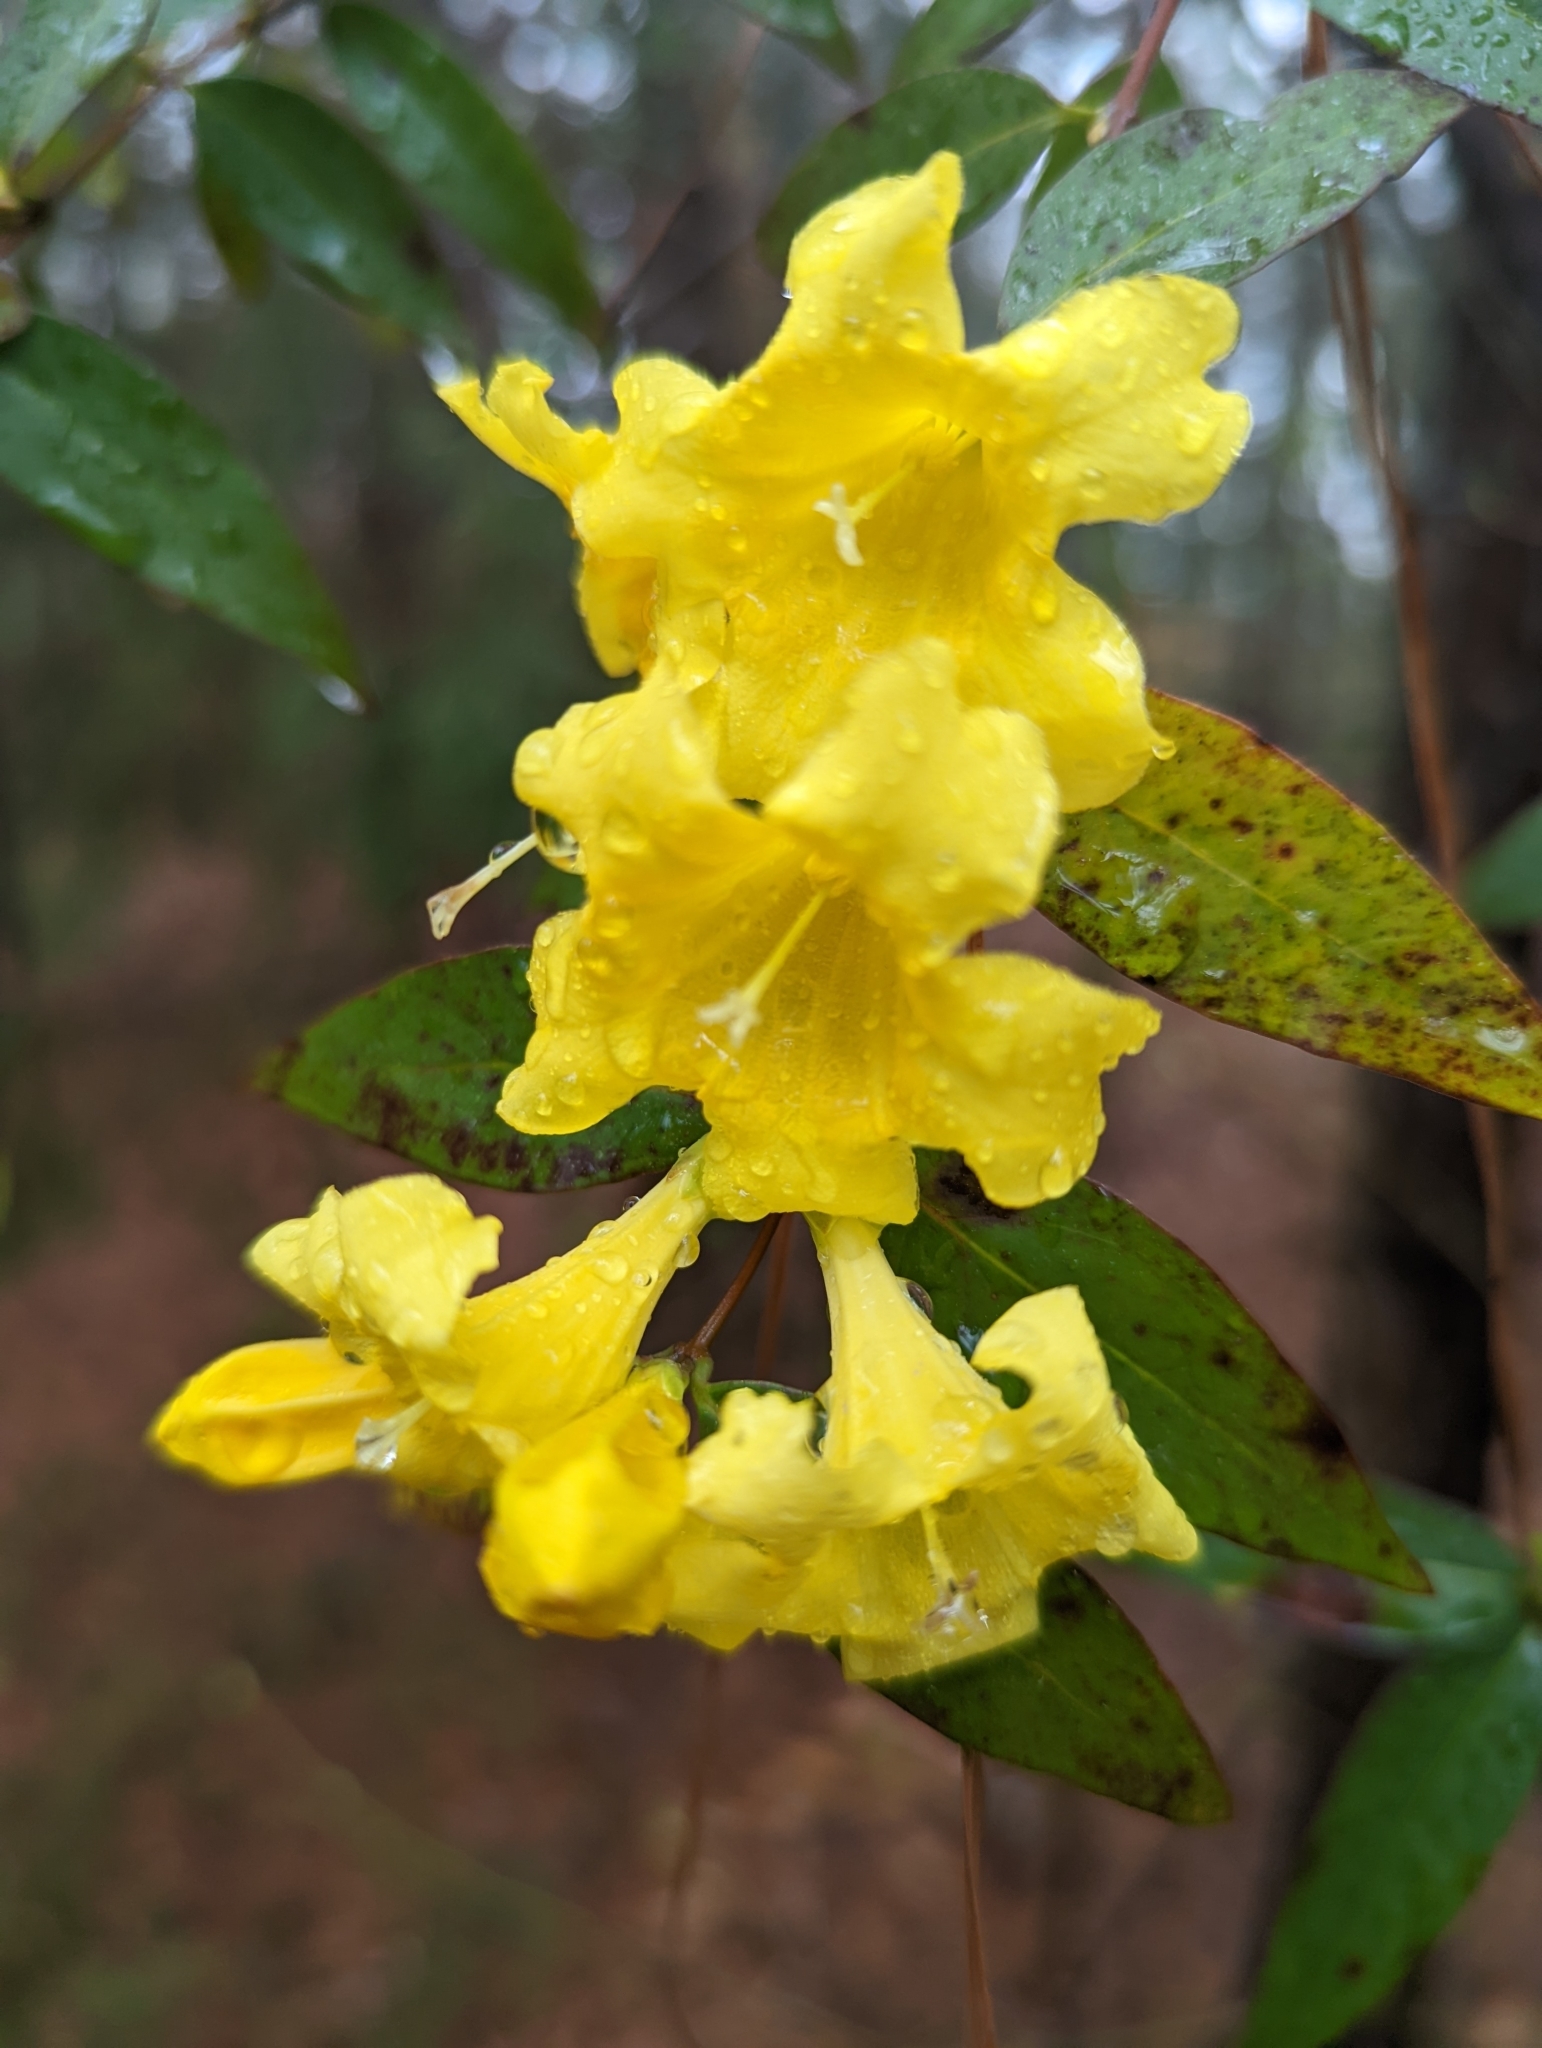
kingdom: Plantae
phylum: Tracheophyta
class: Magnoliopsida
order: Gentianales
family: Gelsemiaceae
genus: Gelsemium
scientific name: Gelsemium sempervirens
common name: Carolina-jasmine
